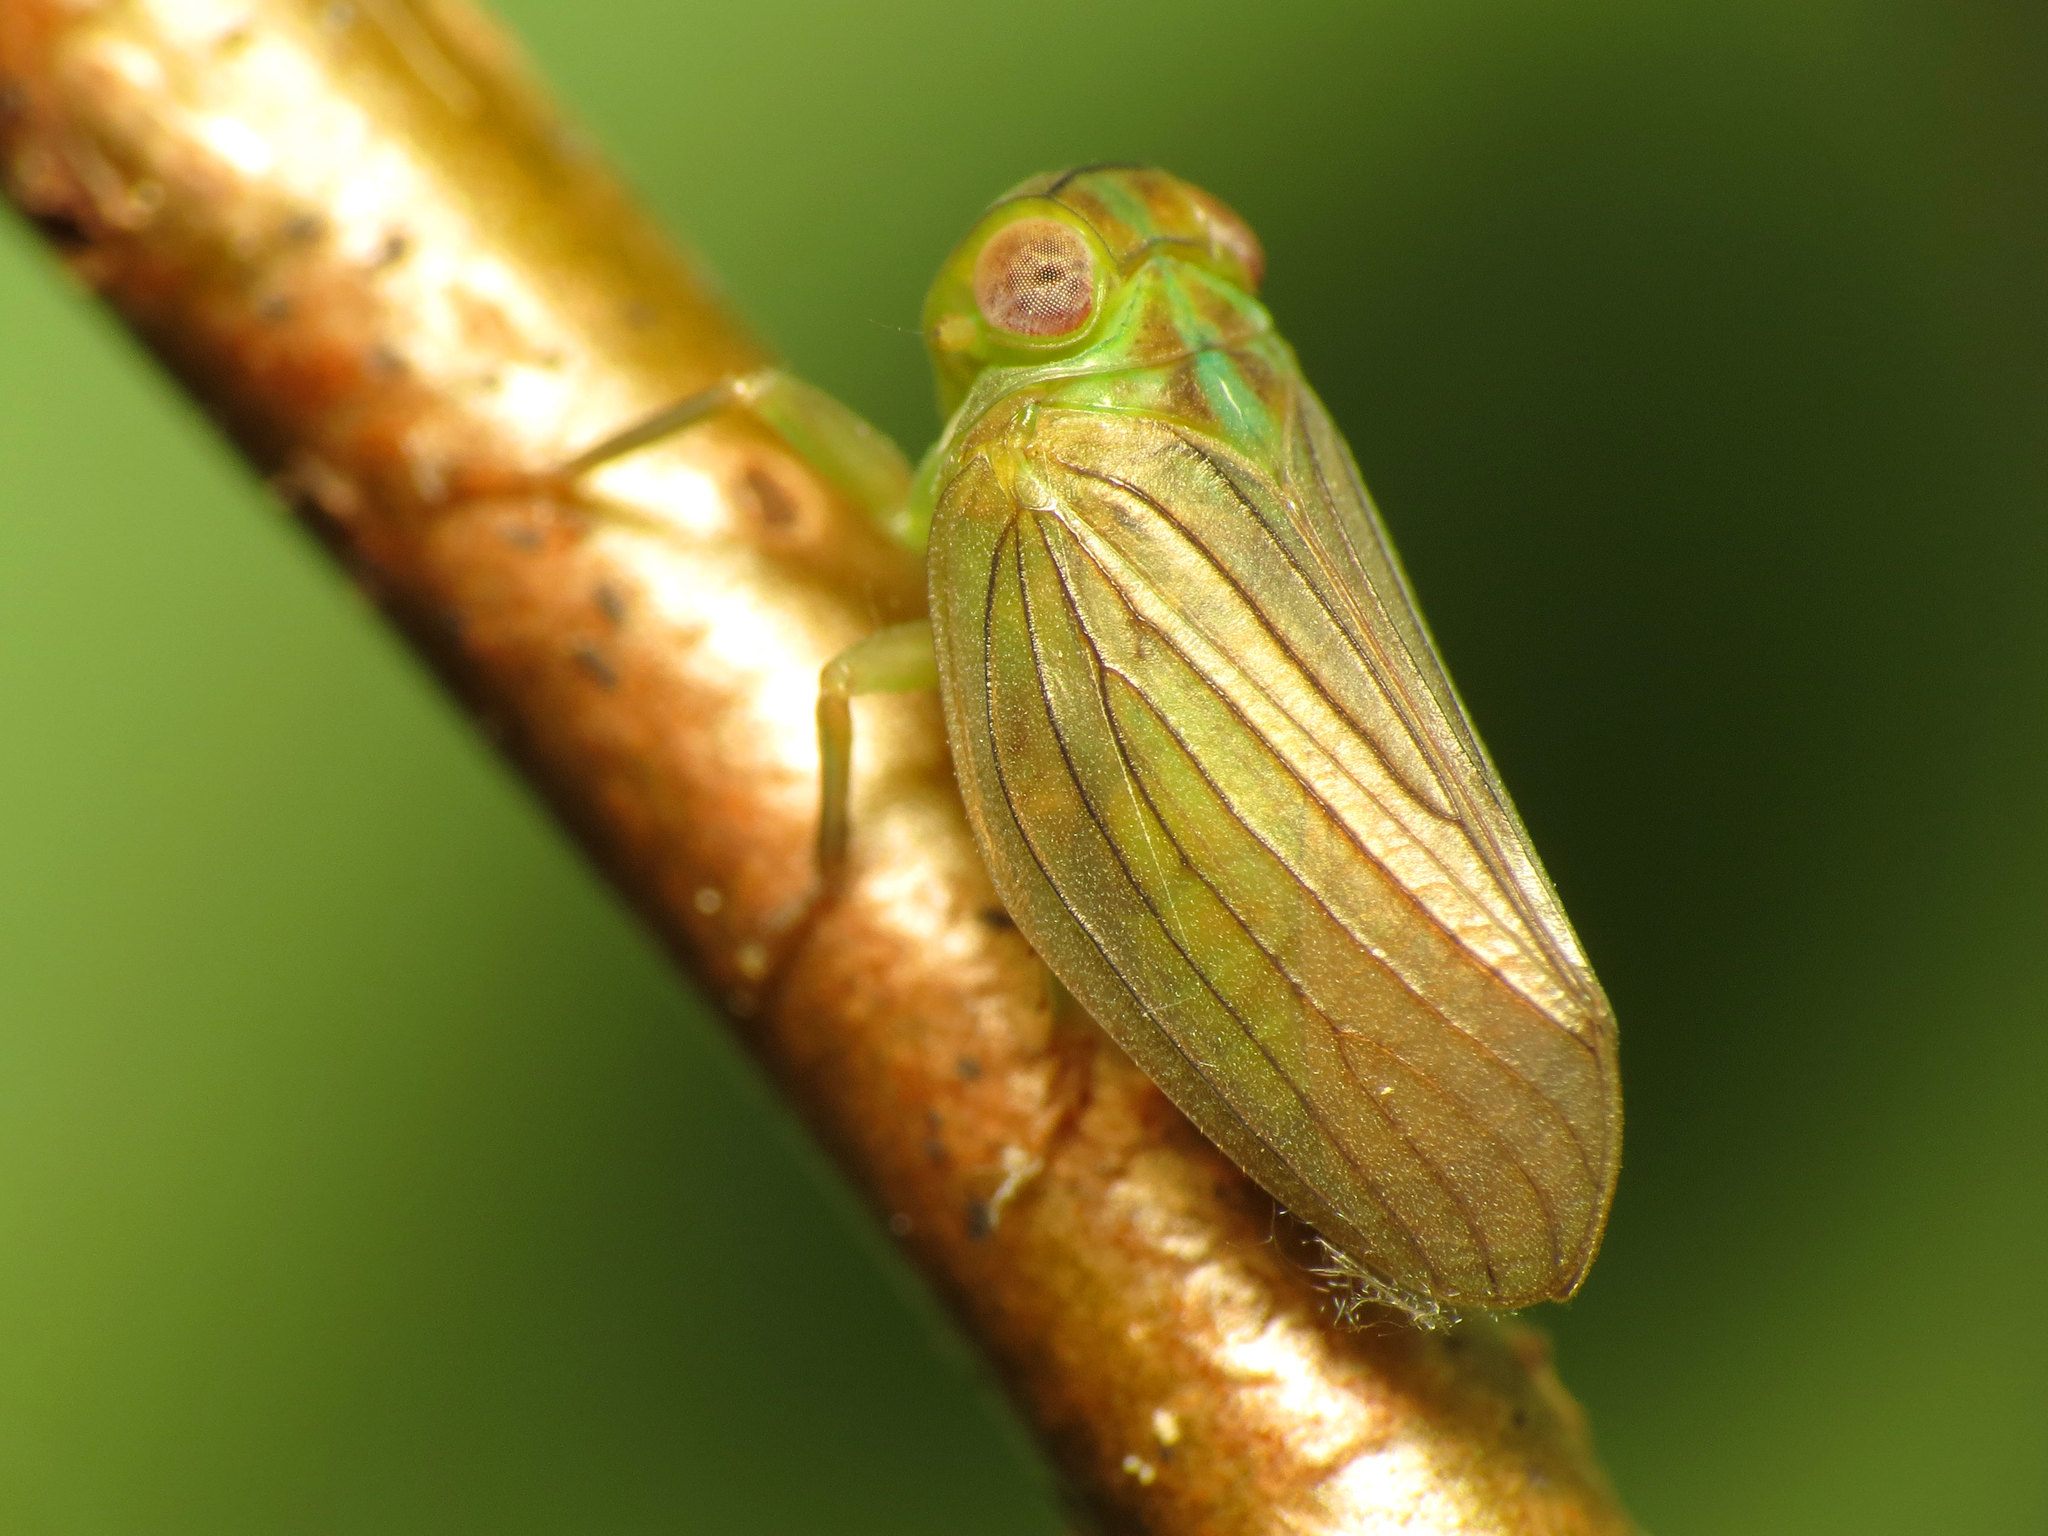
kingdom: Animalia
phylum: Arthropoda
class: Insecta
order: Hemiptera
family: Issidae
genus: Aplos
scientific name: Aplos simplex
